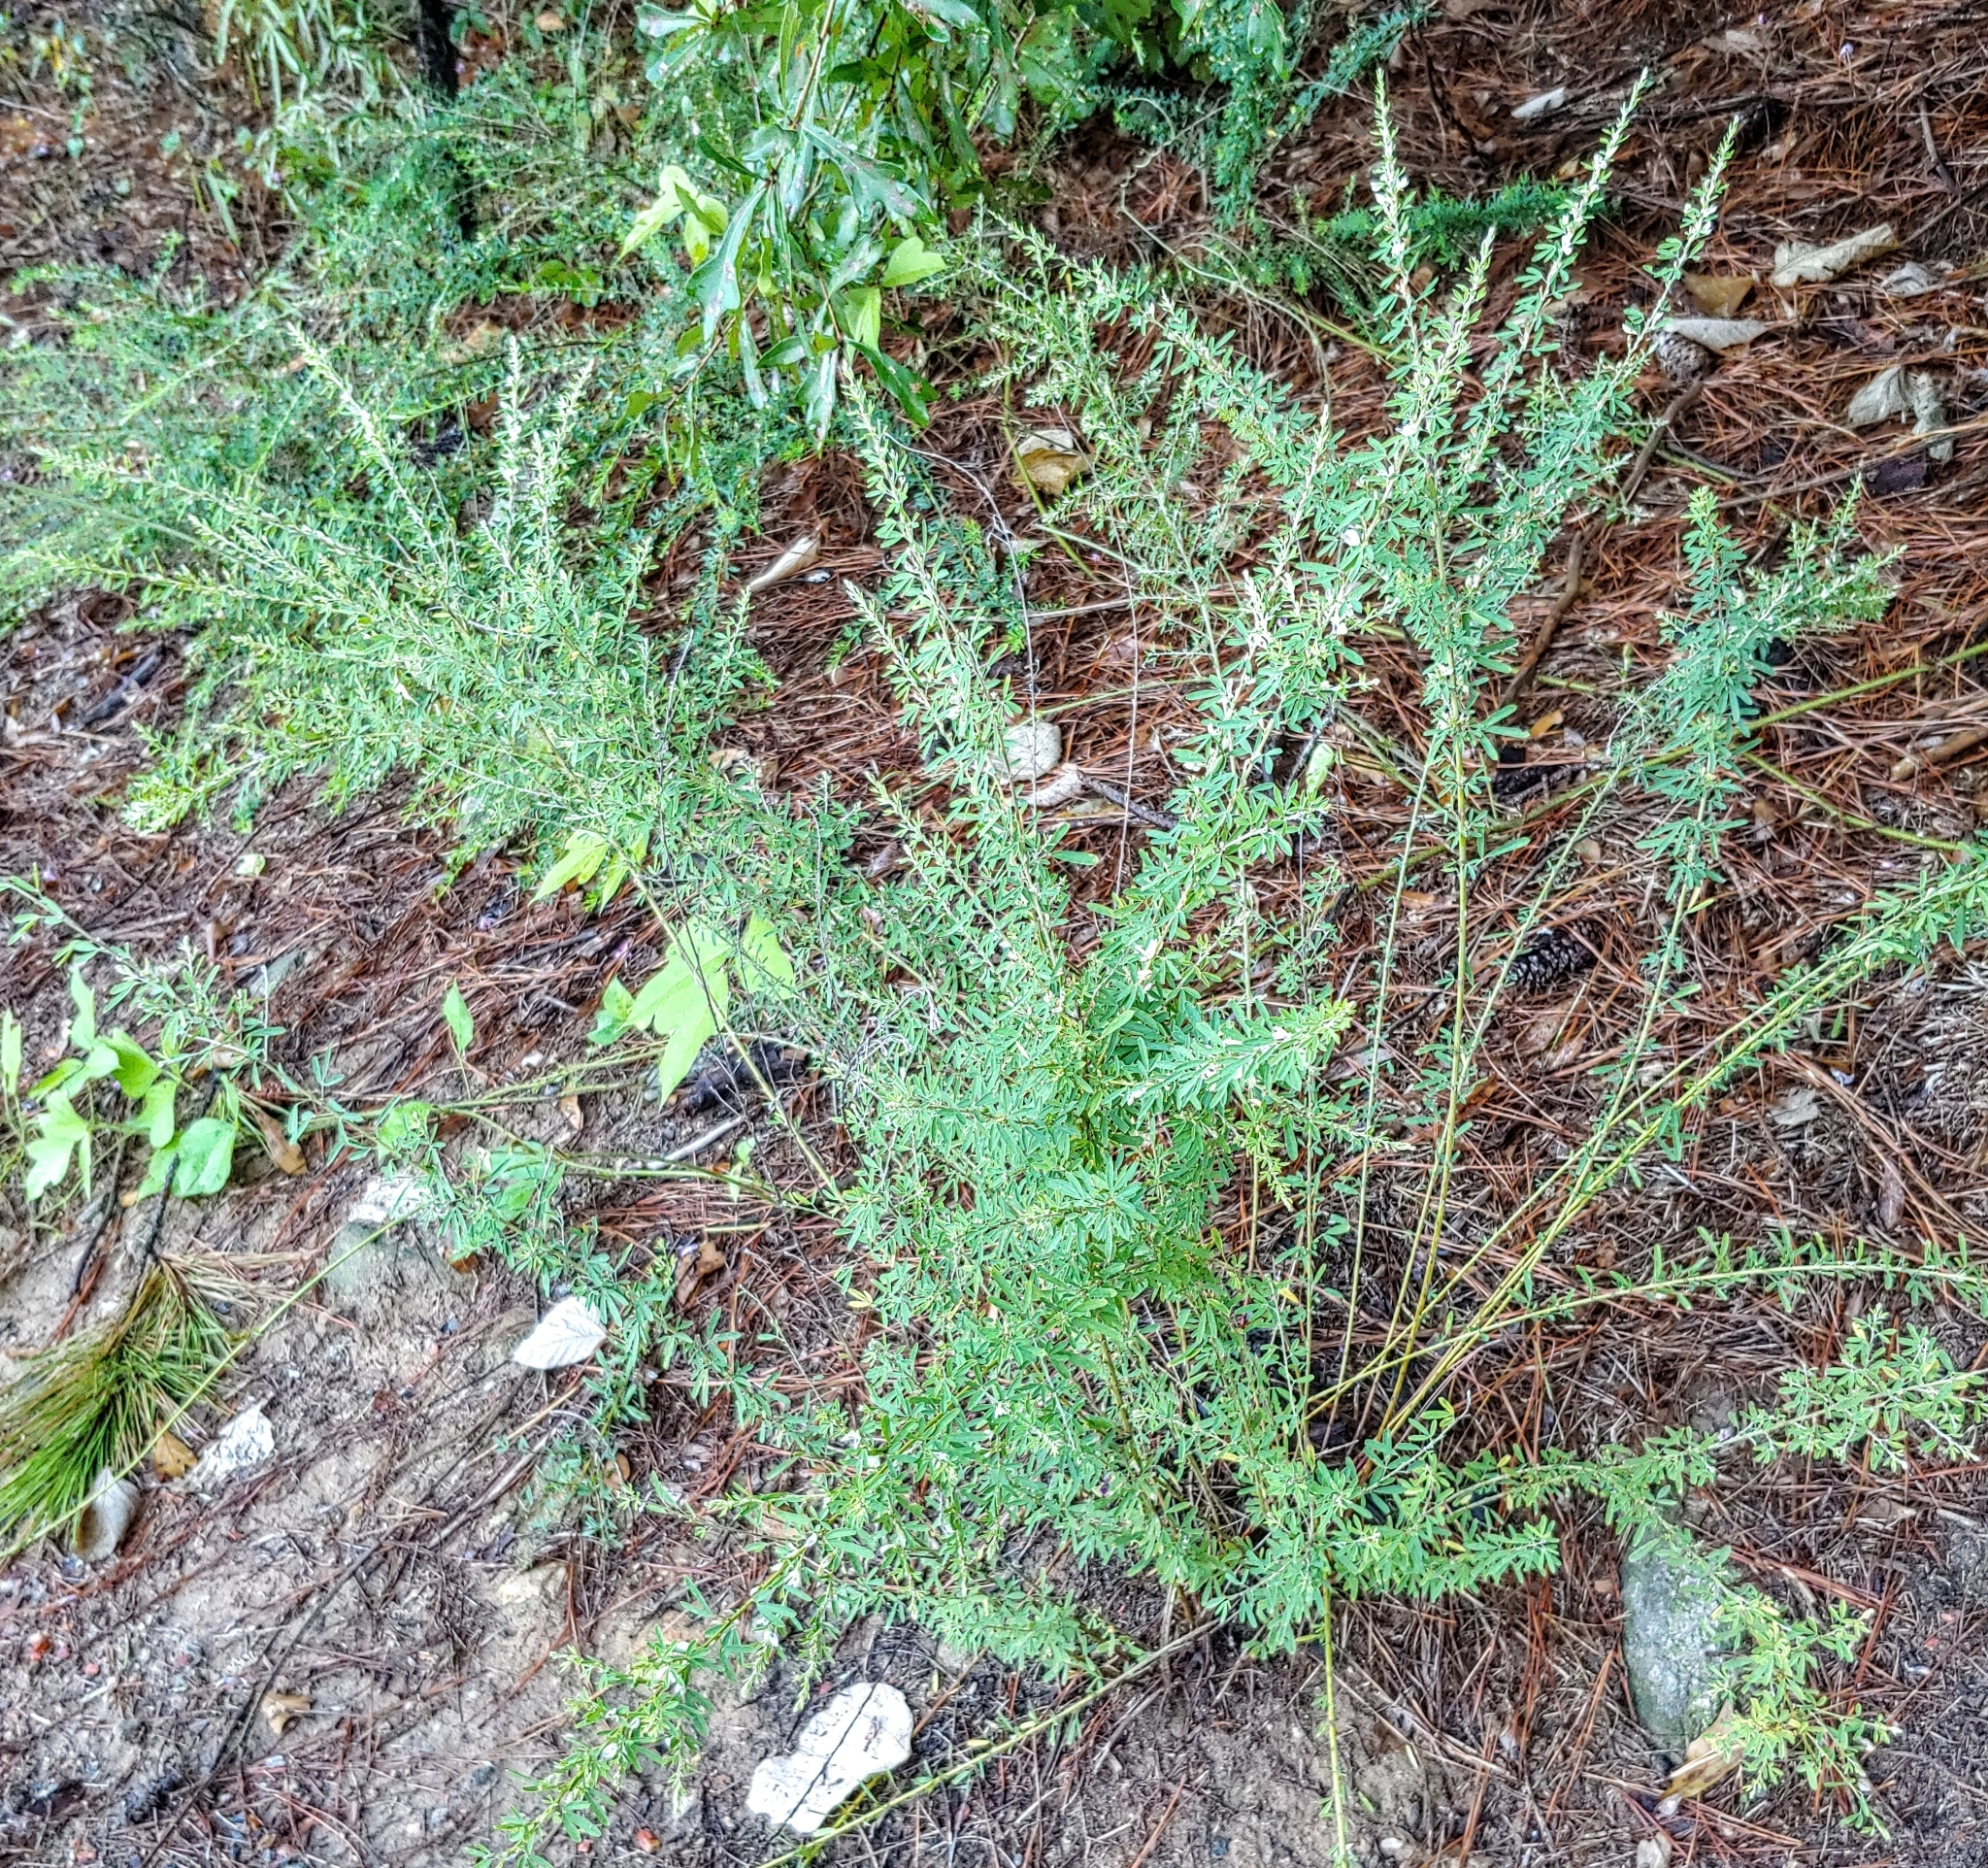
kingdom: Plantae
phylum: Tracheophyta
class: Magnoliopsida
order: Fabales
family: Fabaceae
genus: Lespedeza
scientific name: Lespedeza cuneata
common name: Chinese bush-clover
